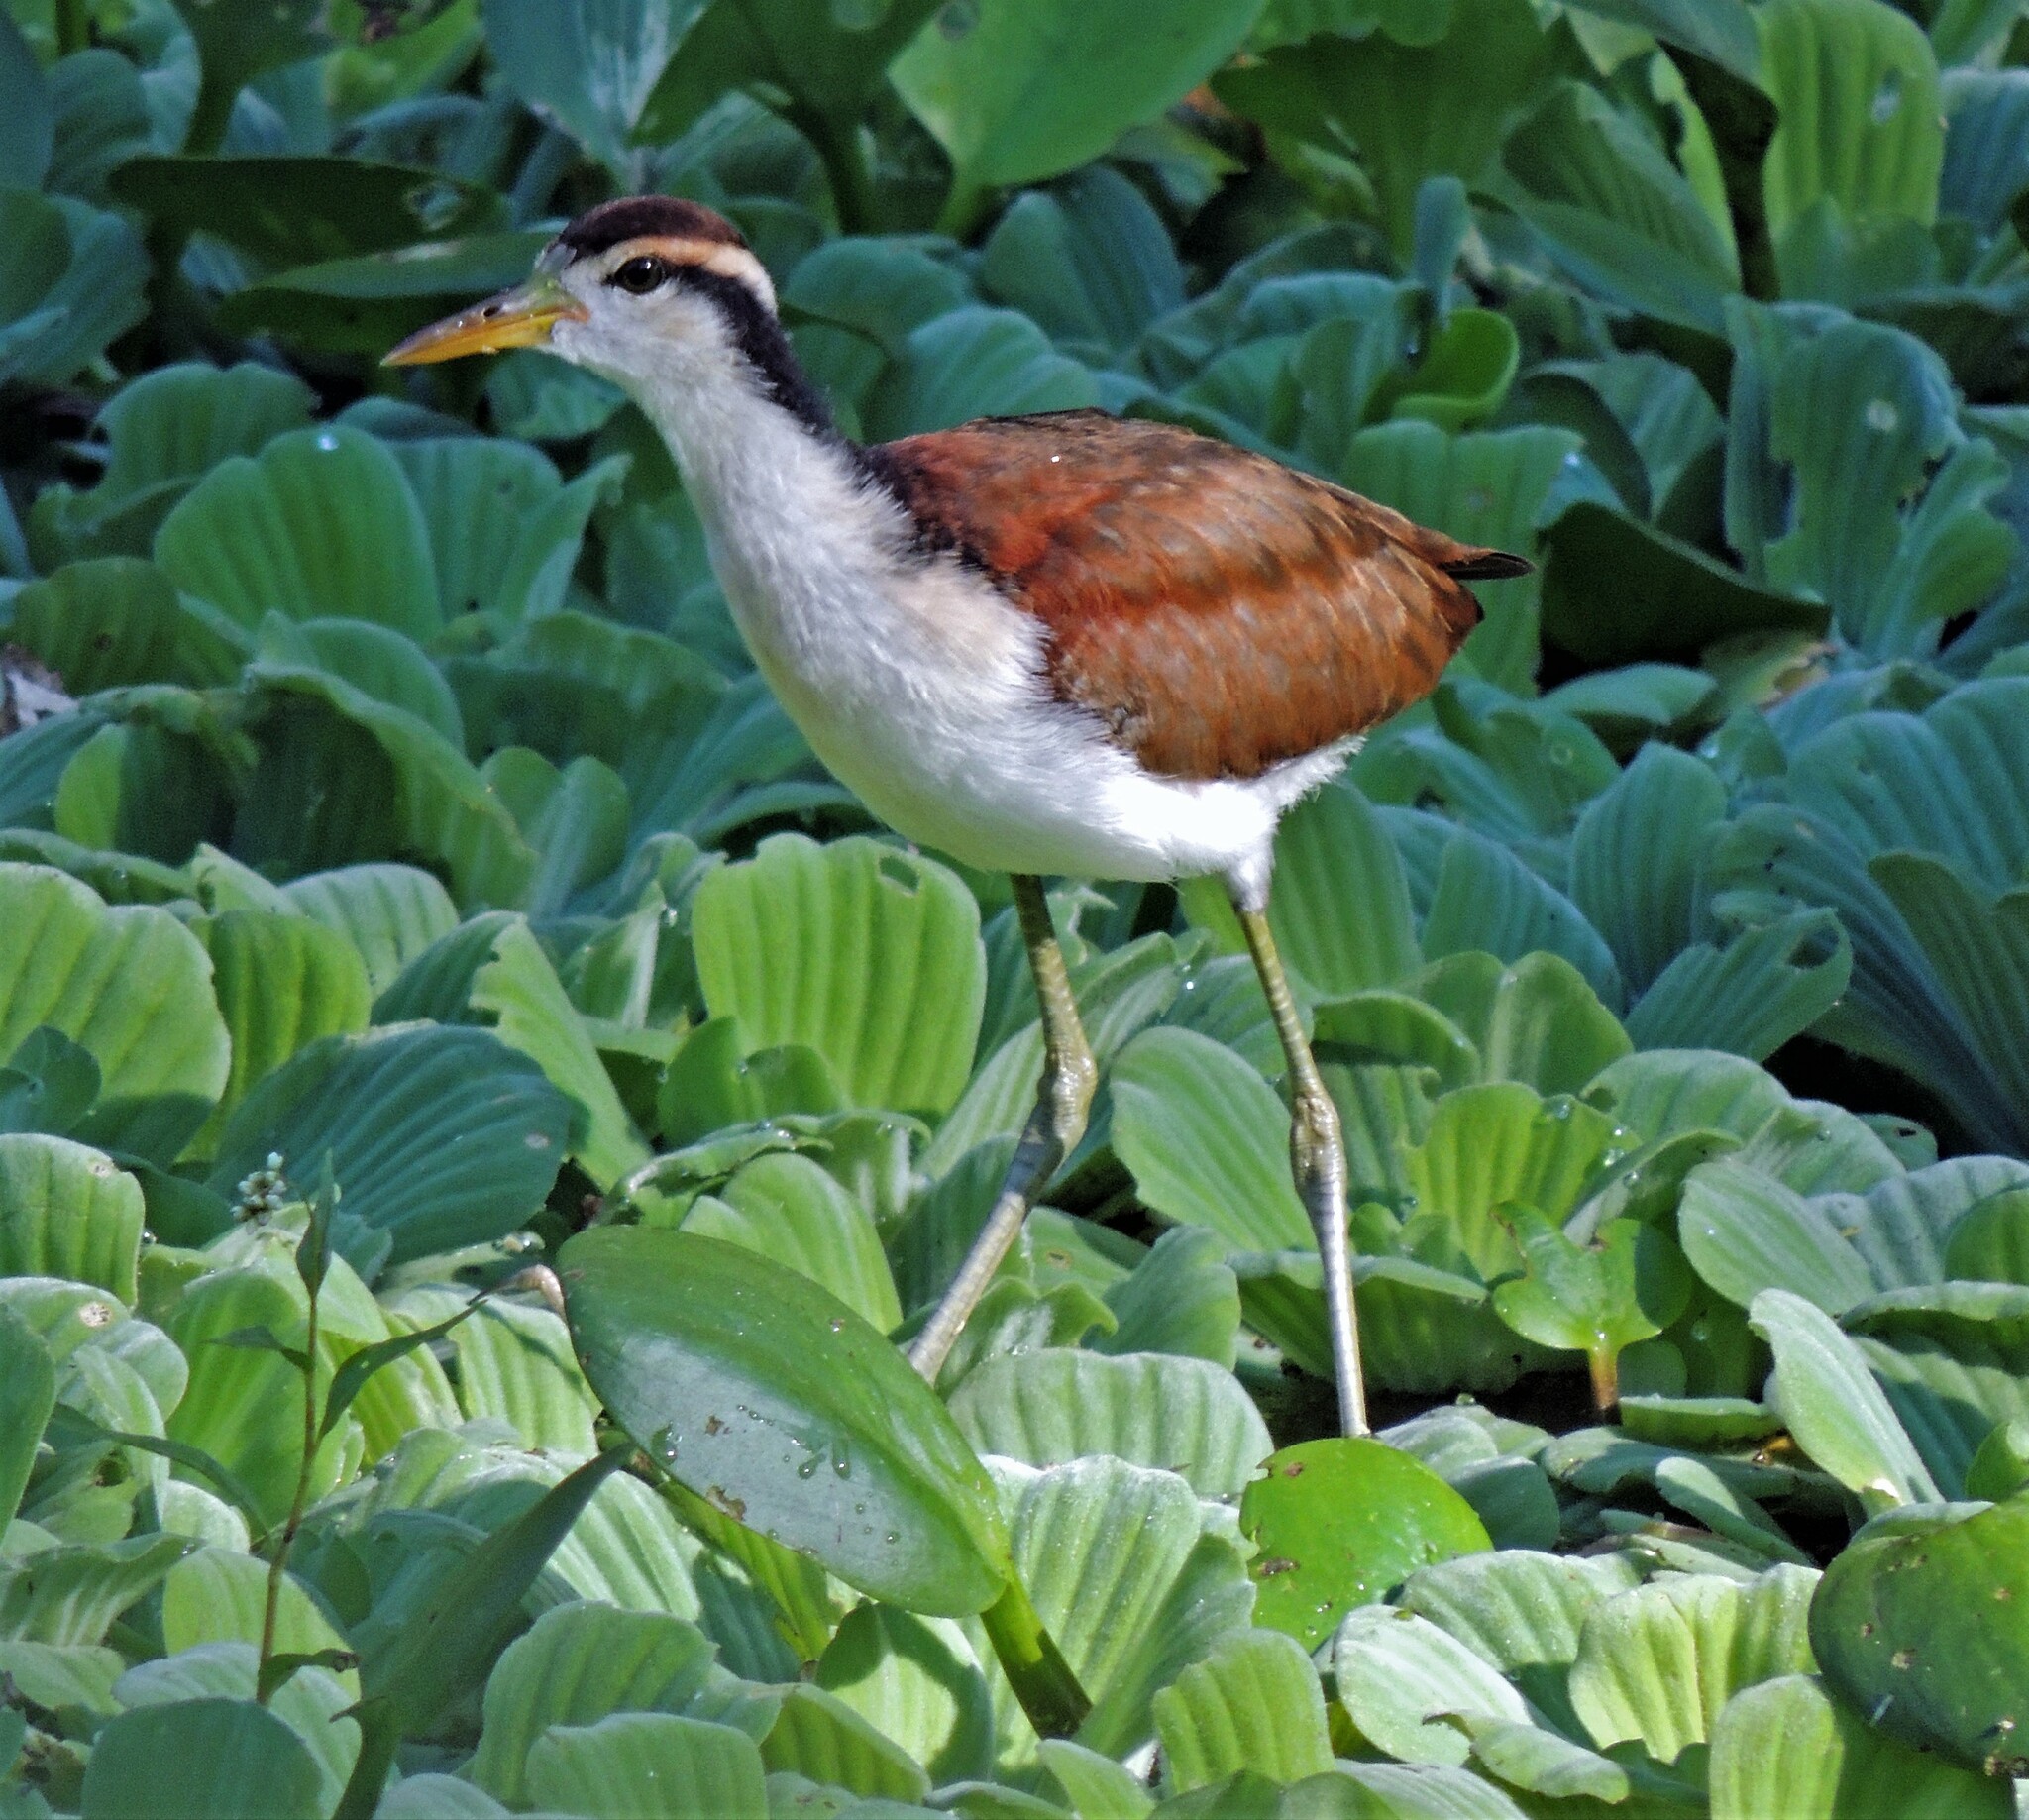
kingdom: Animalia
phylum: Chordata
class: Aves
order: Charadriiformes
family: Jacanidae
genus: Jacana
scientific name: Jacana jacana
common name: Wattled jacana
